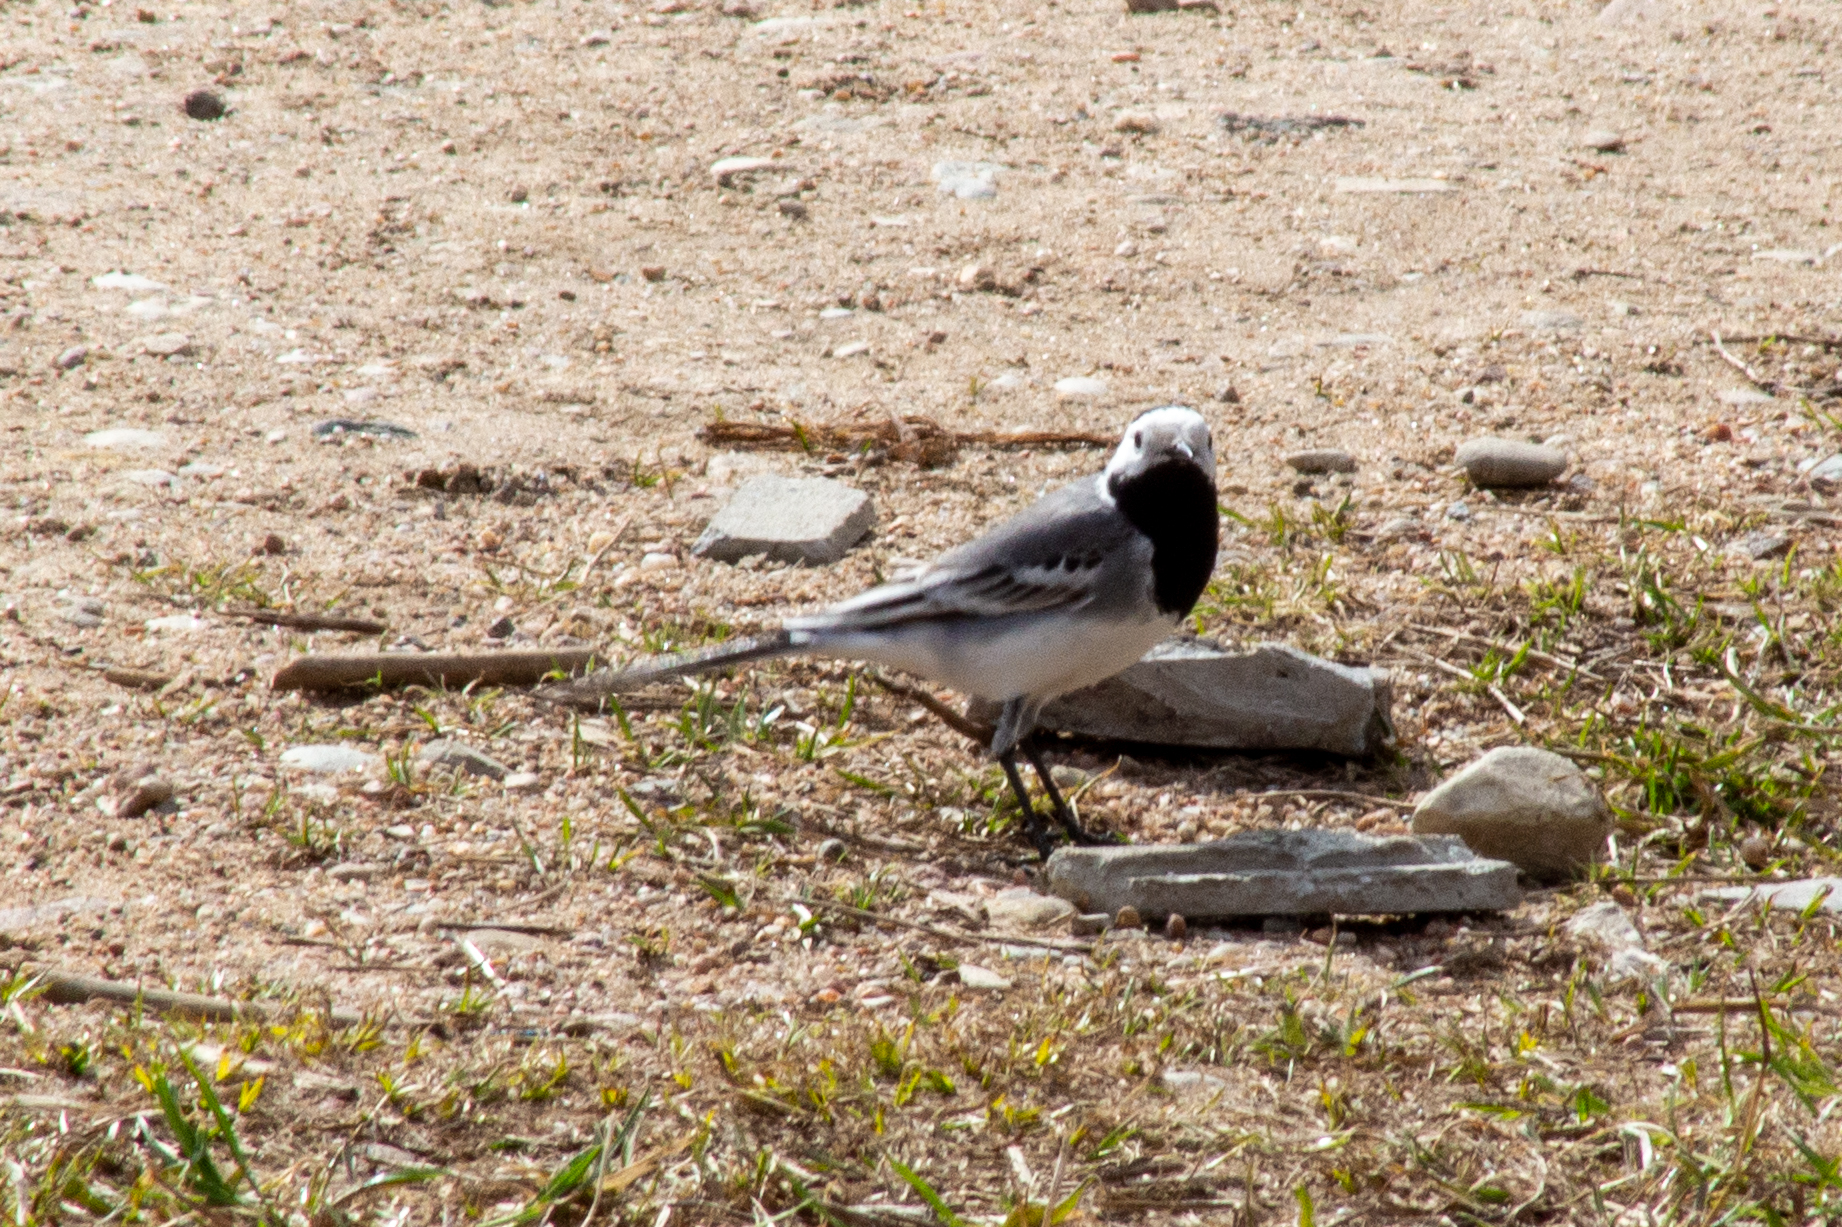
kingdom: Animalia
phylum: Chordata
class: Aves
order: Passeriformes
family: Motacillidae
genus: Motacilla
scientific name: Motacilla alba
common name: White wagtail
